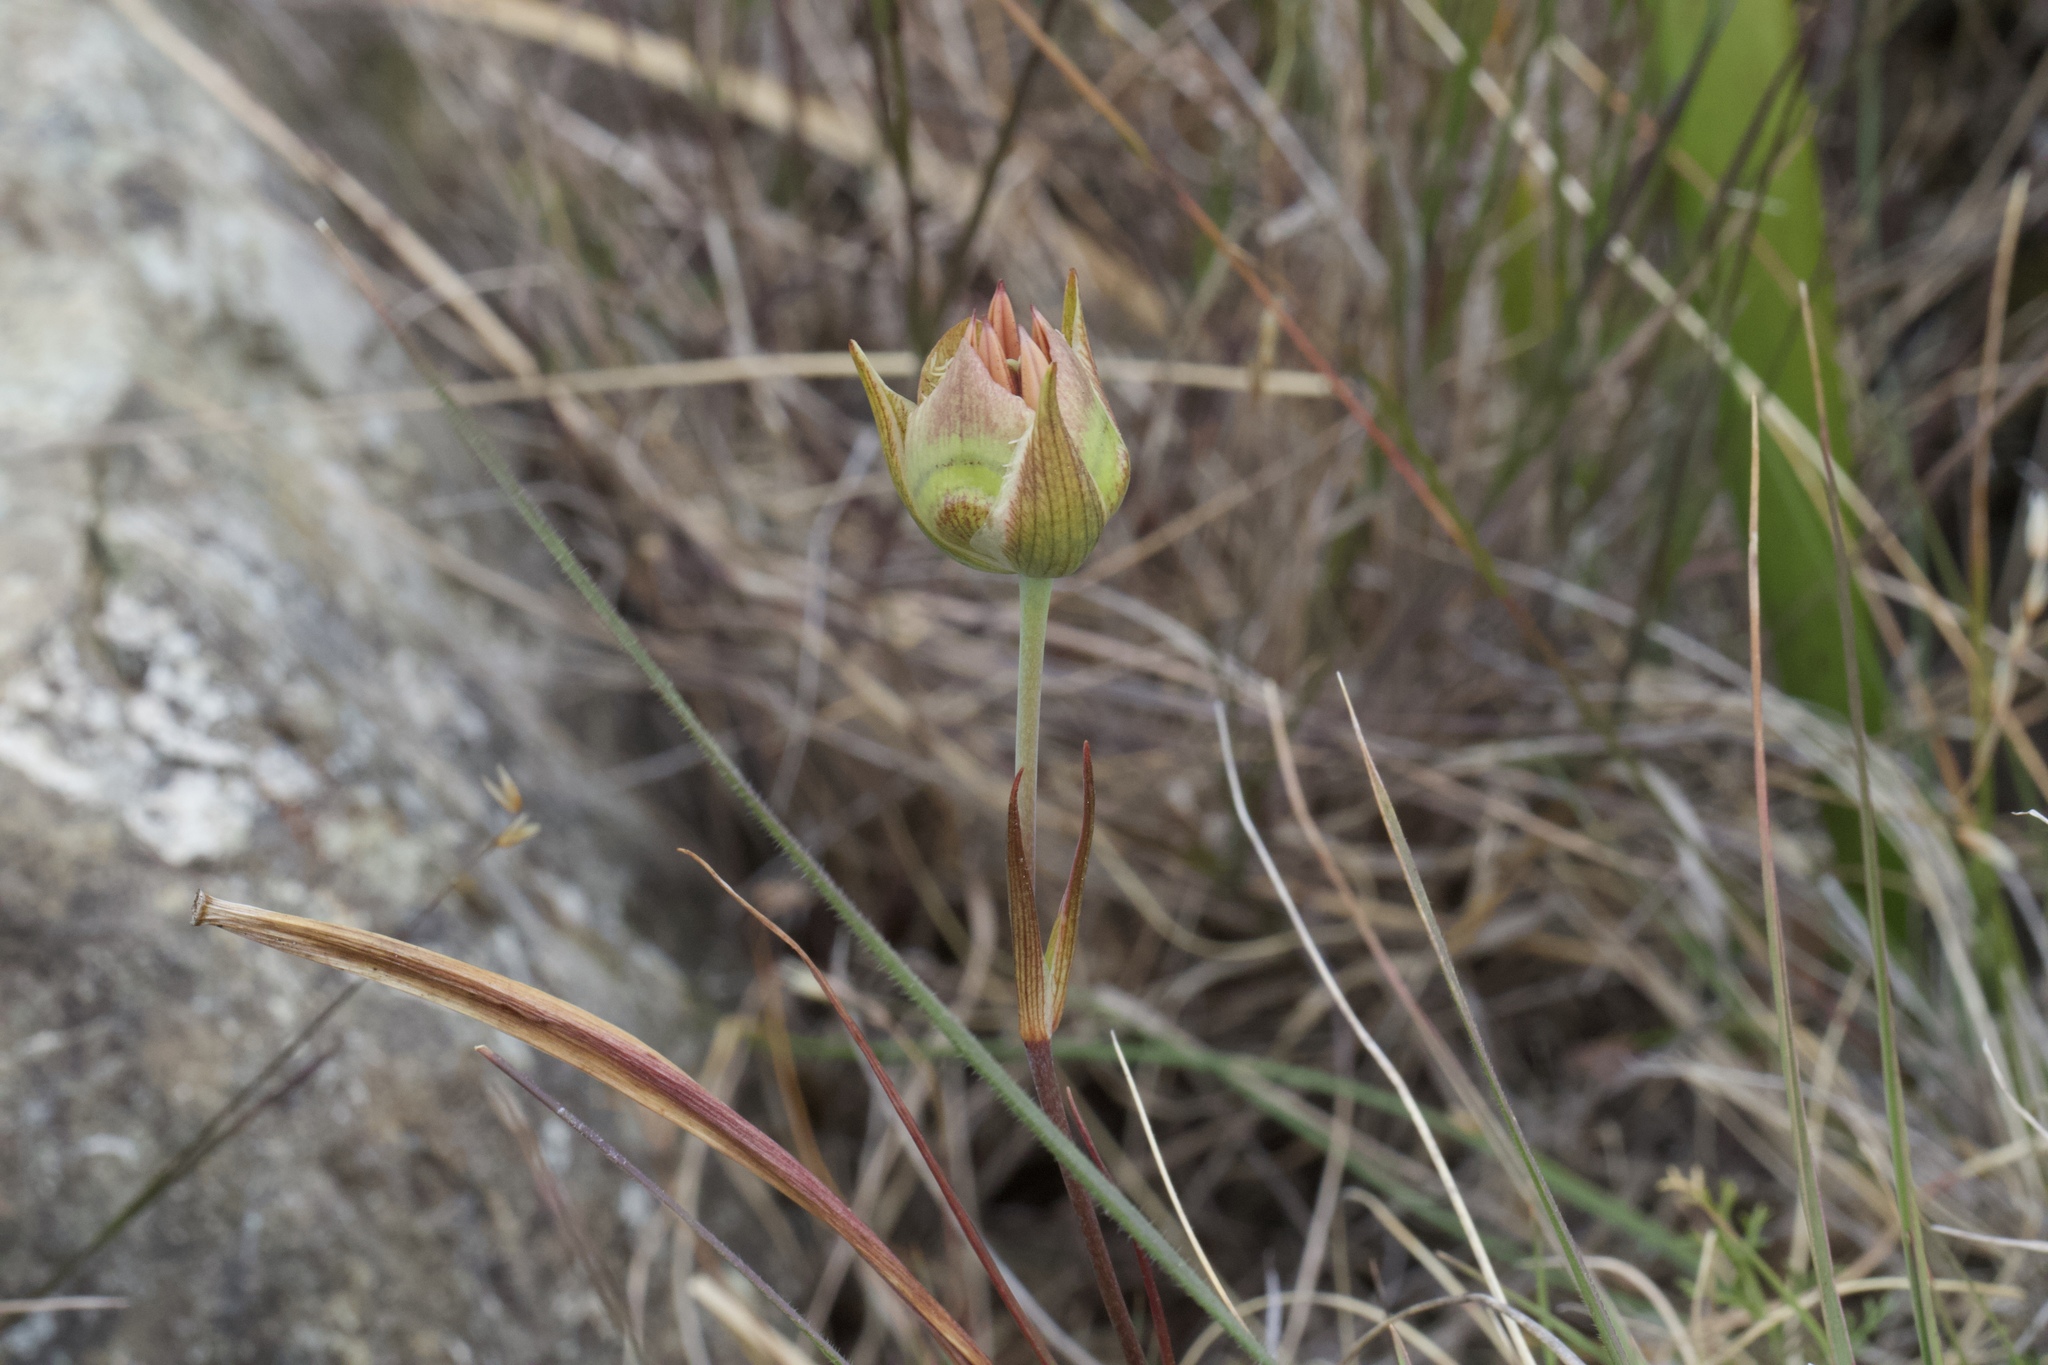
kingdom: Plantae
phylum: Tracheophyta
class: Liliopsida
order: Liliales
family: Liliaceae
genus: Calochortus
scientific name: Calochortus tiburonensis
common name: Tiburon mariposa-lily
